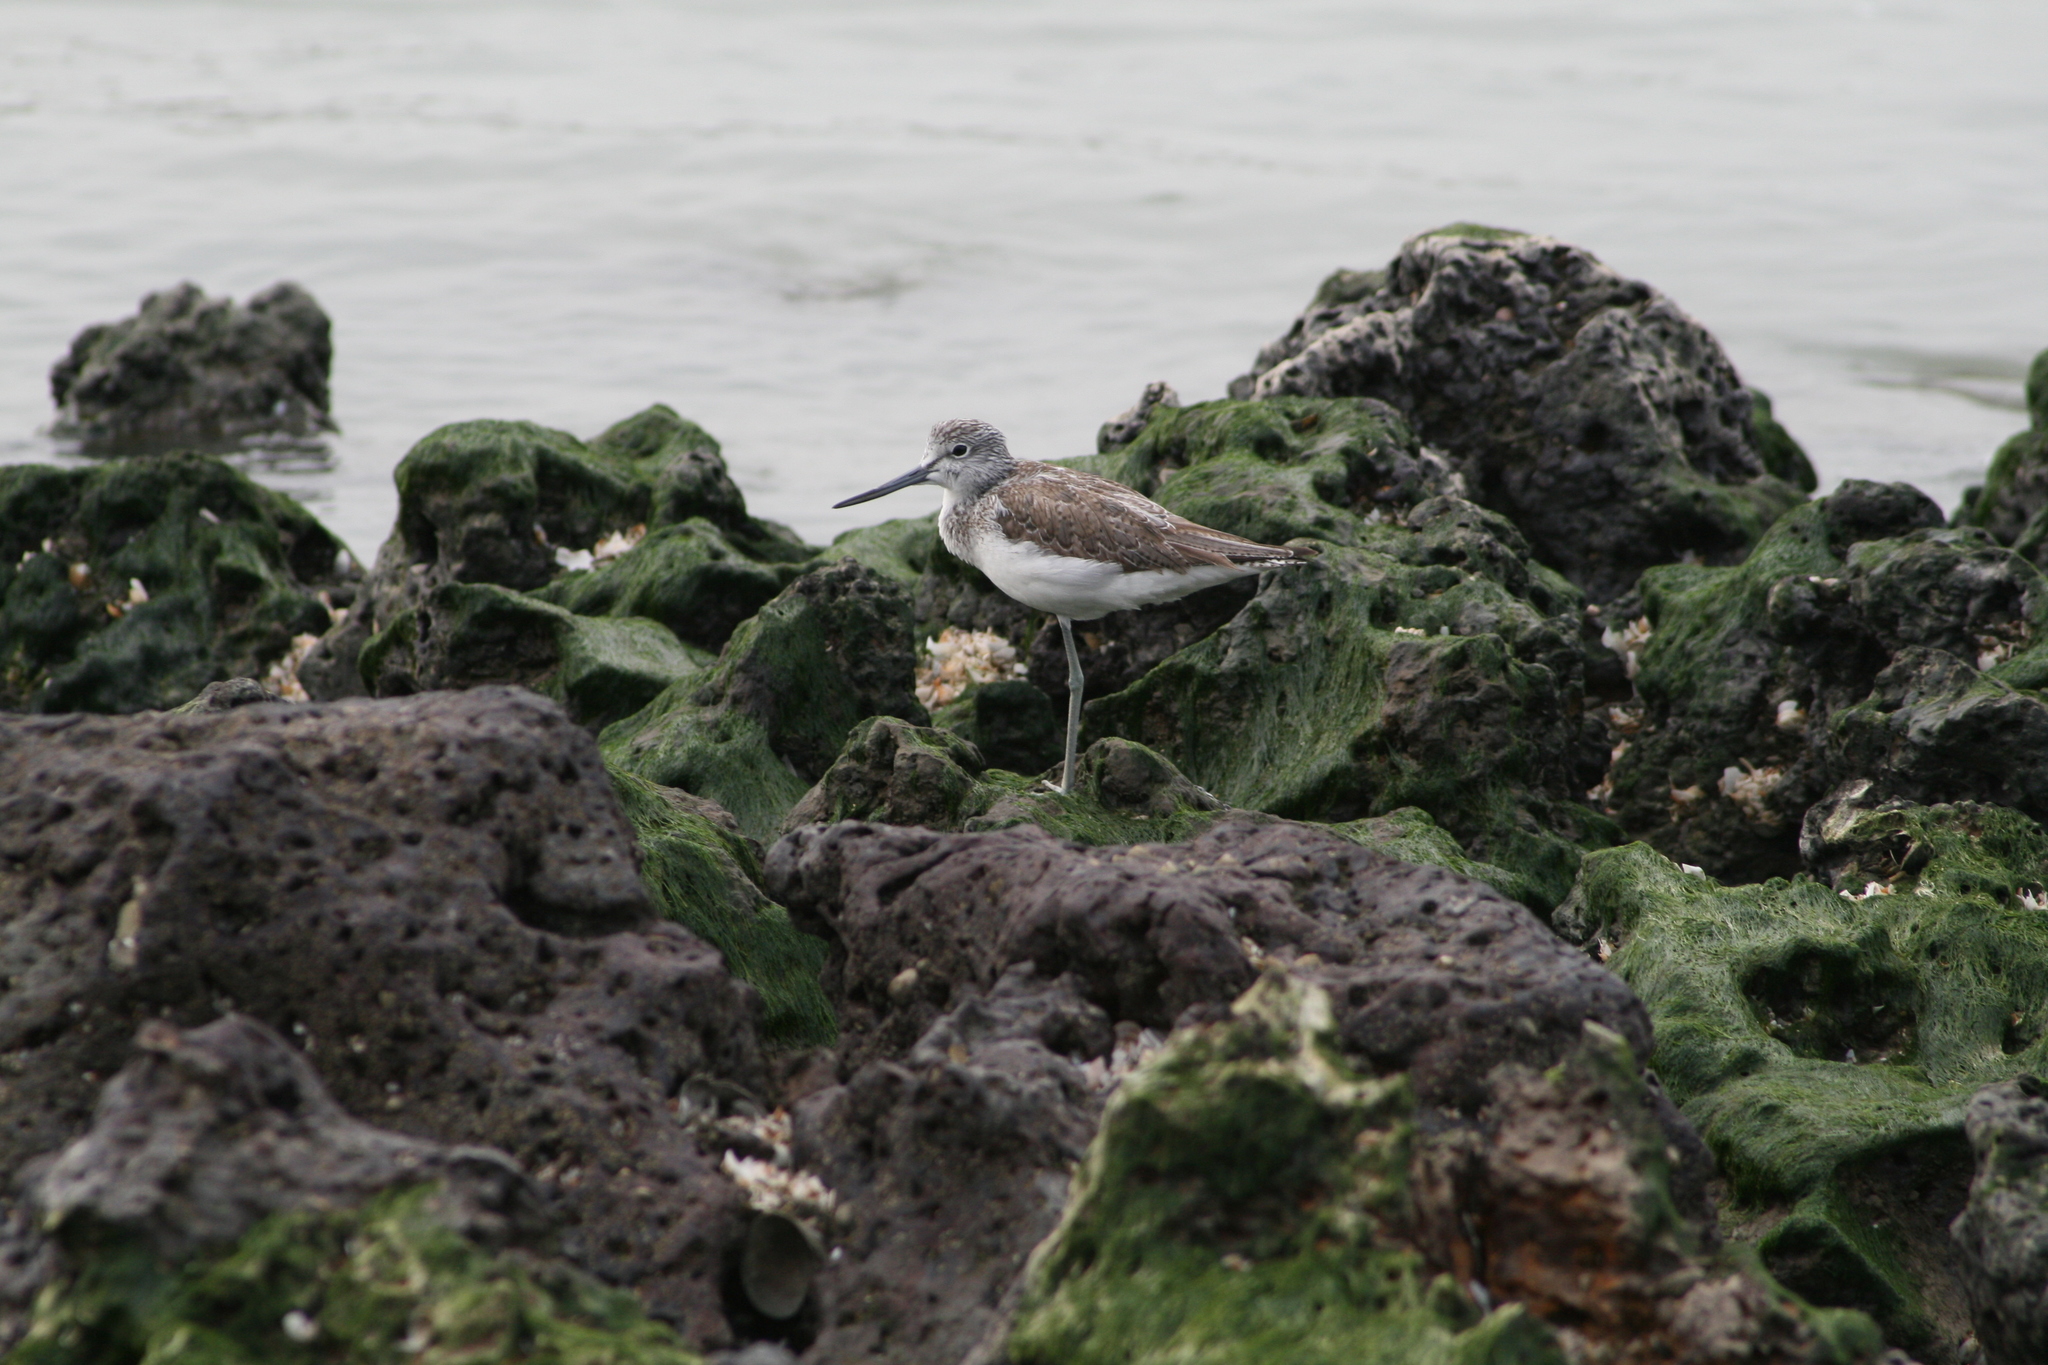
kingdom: Animalia
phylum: Chordata
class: Aves
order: Charadriiformes
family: Scolopacidae
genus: Tringa
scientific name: Tringa nebularia
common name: Common greenshank
